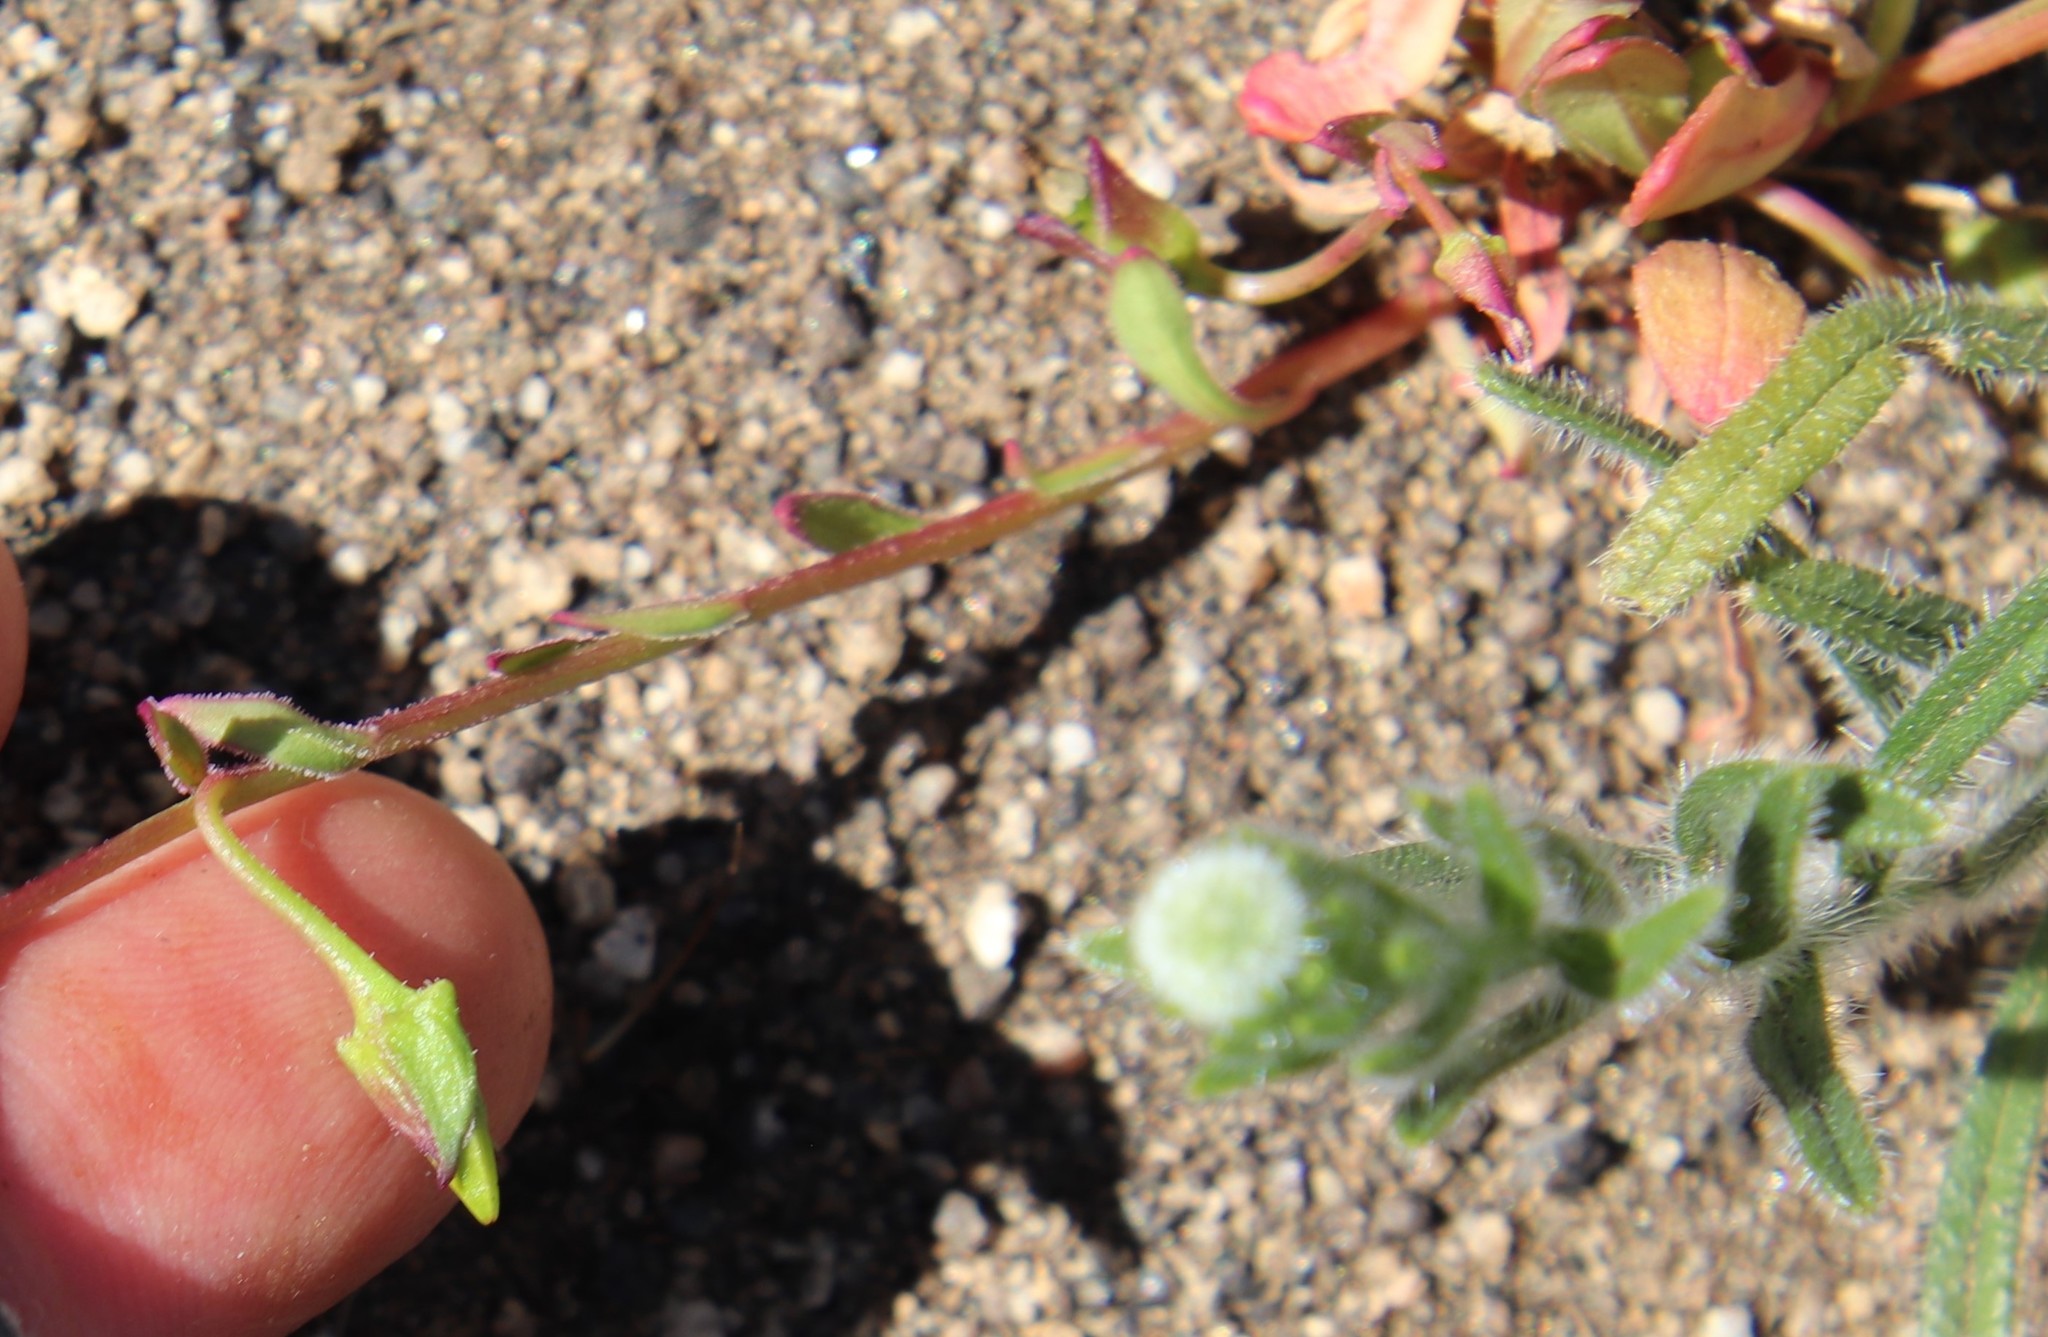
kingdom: Plantae
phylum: Tracheophyta
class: Magnoliopsida
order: Caryophyllales
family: Montiaceae
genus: Calandrinia
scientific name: Calandrinia breweri
